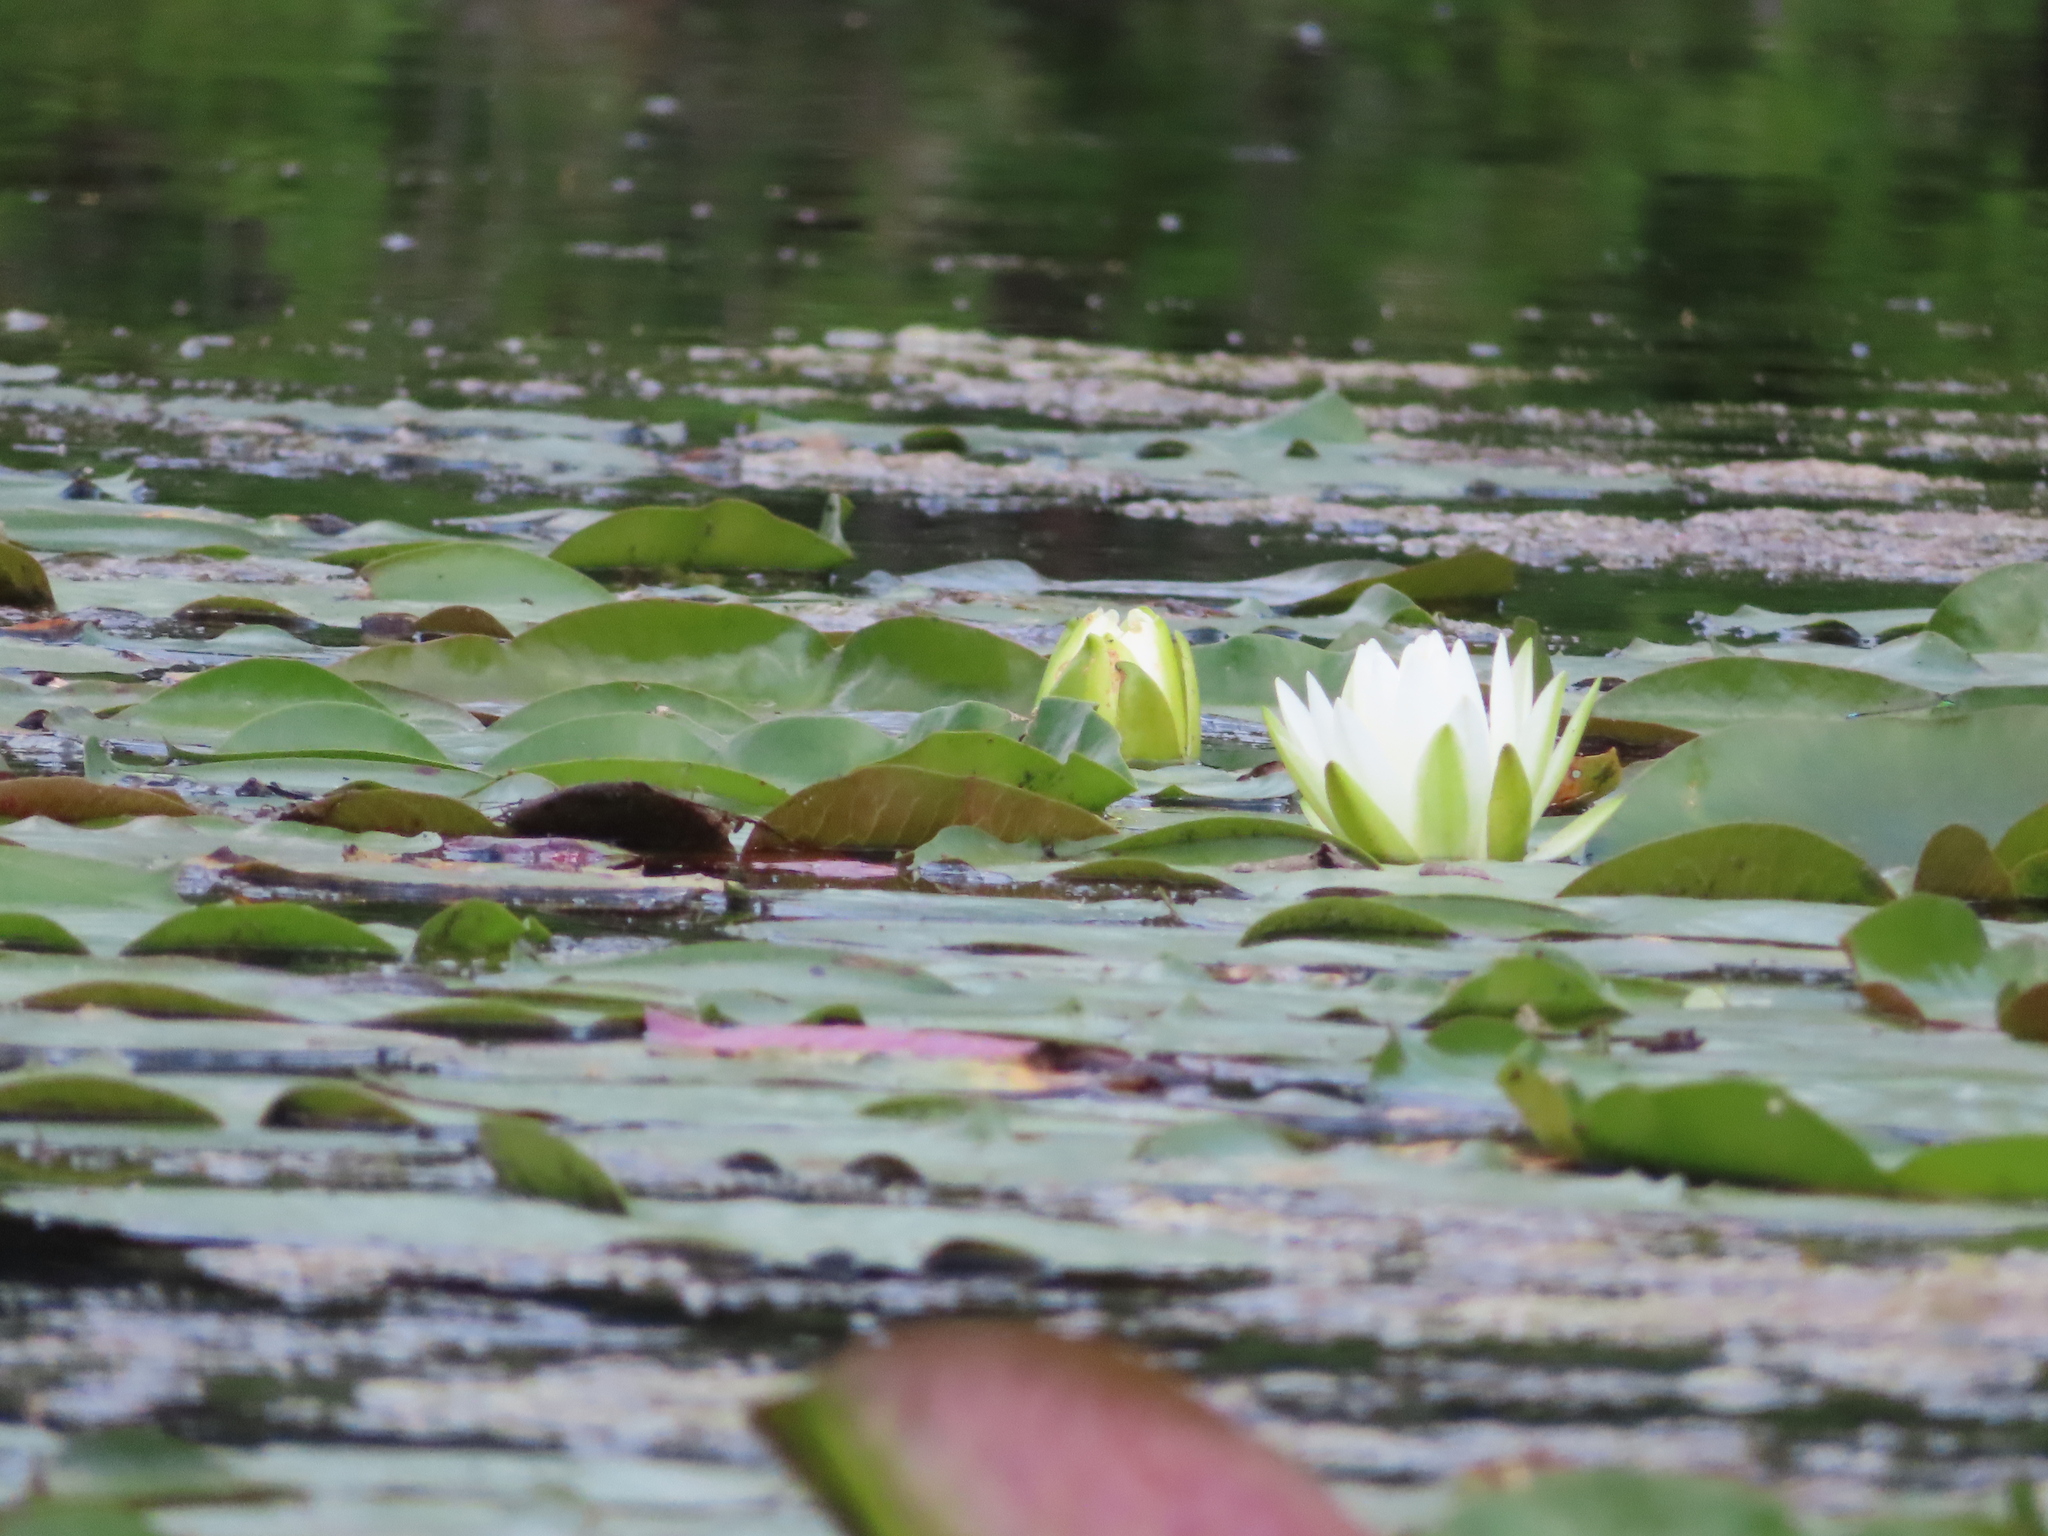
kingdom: Plantae
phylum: Tracheophyta
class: Magnoliopsida
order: Nymphaeales
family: Nymphaeaceae
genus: Nymphaea
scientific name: Nymphaea odorata
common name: Fragrant water-lily
